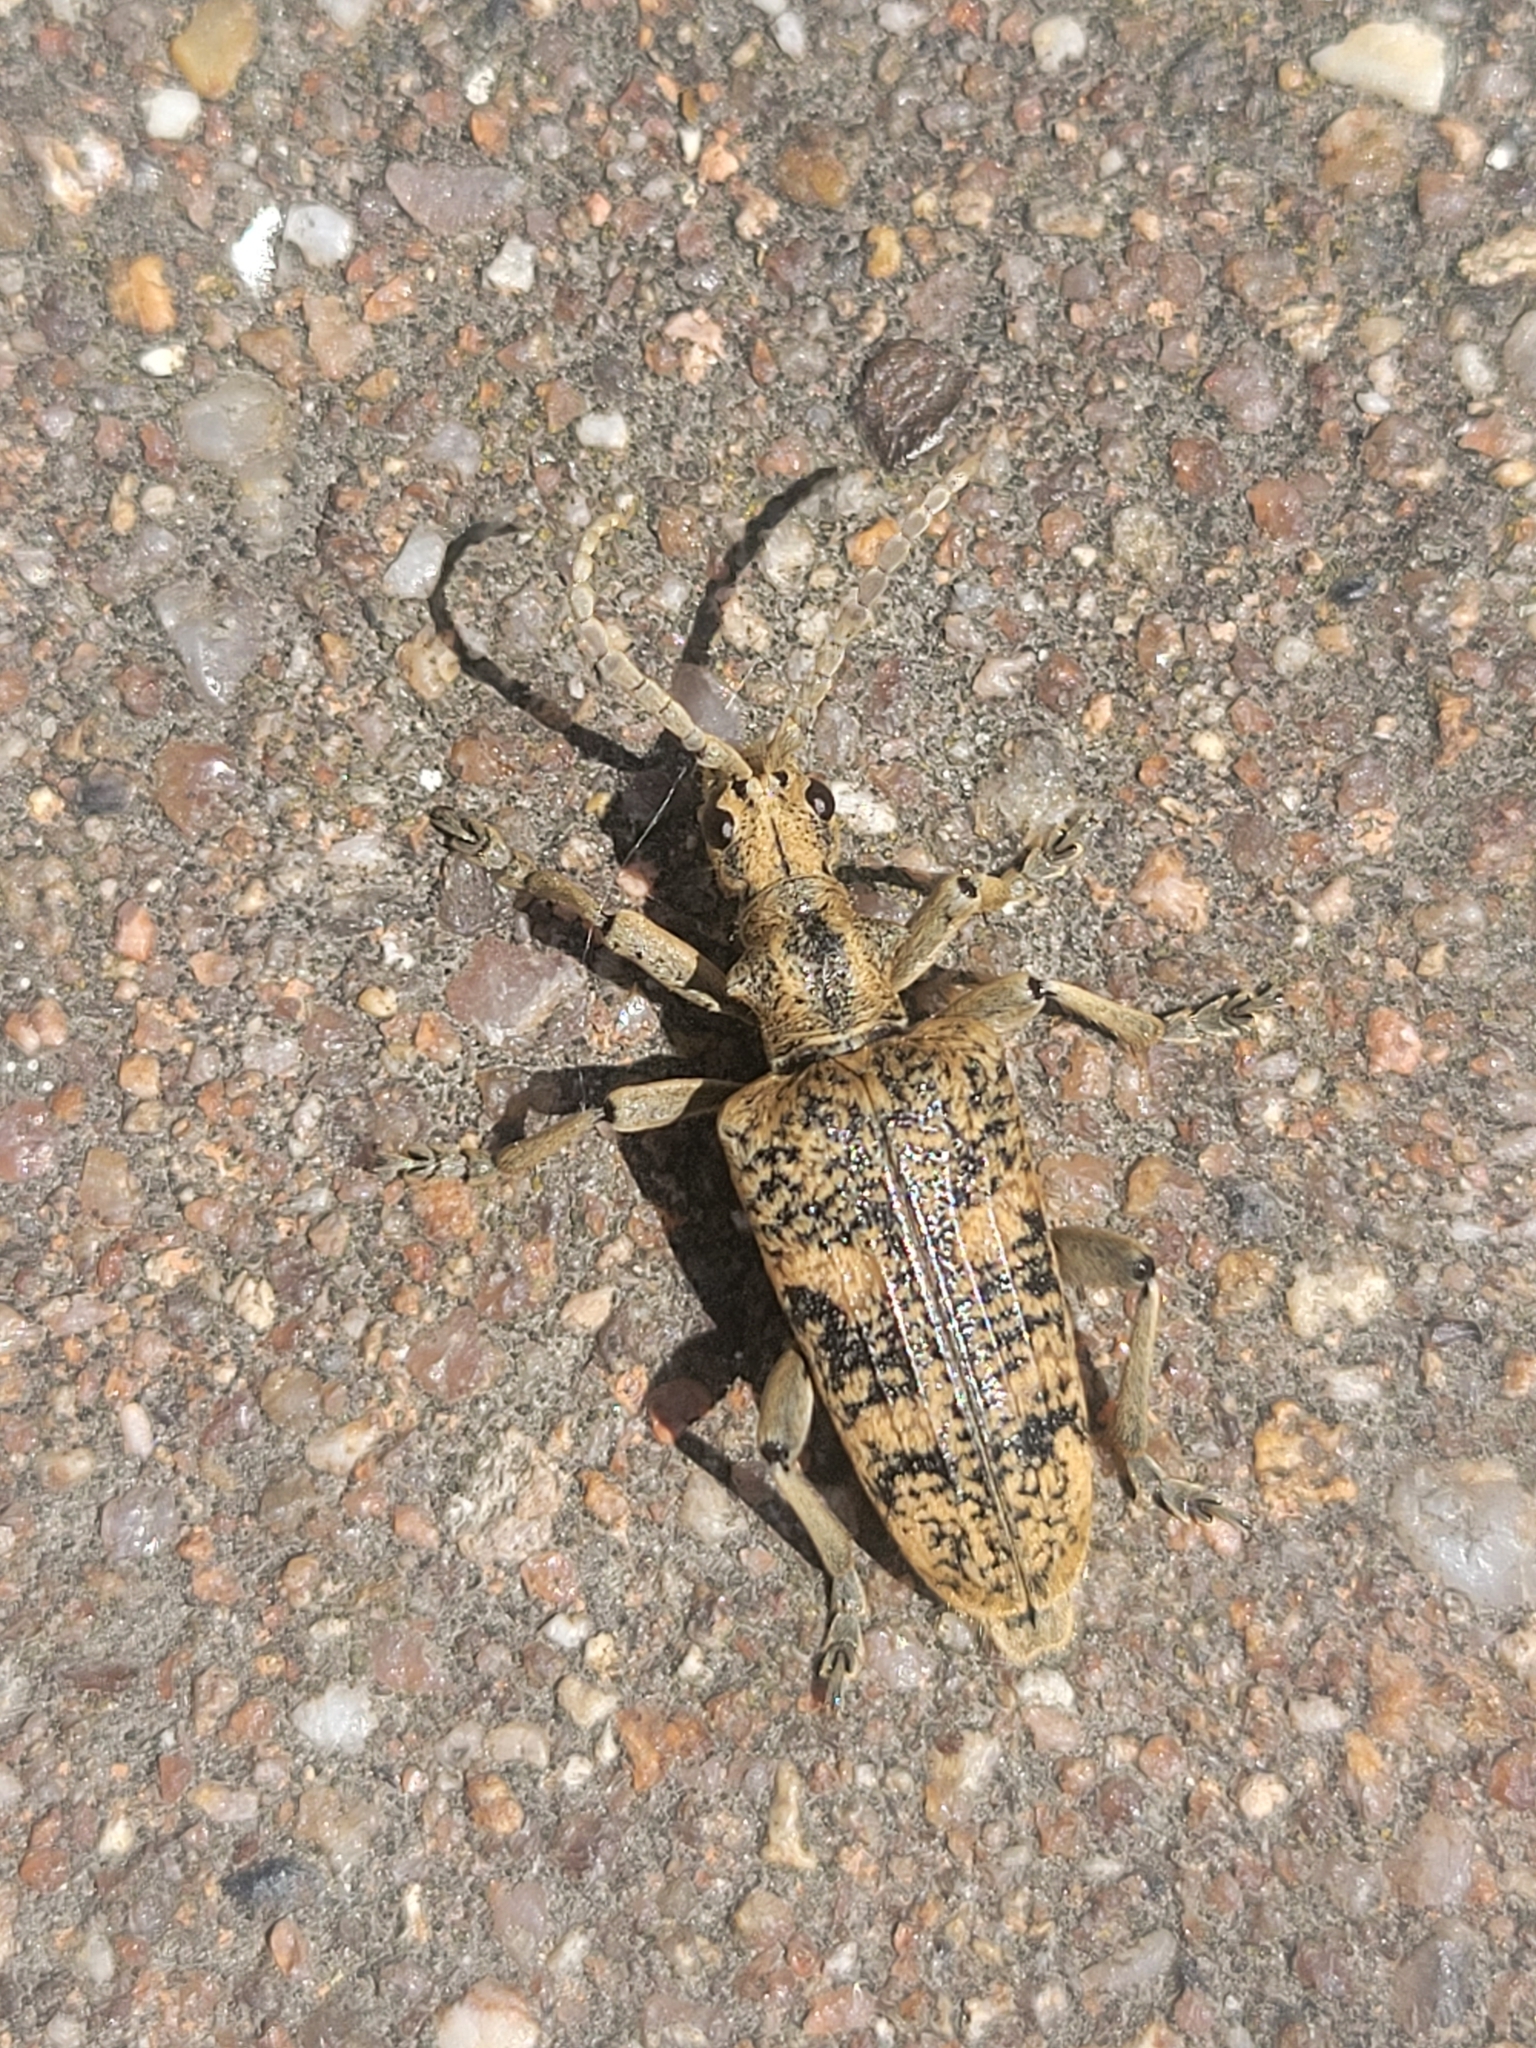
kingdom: Animalia
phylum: Arthropoda
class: Insecta
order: Coleoptera
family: Cerambycidae
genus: Rhagium
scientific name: Rhagium sycophanta
